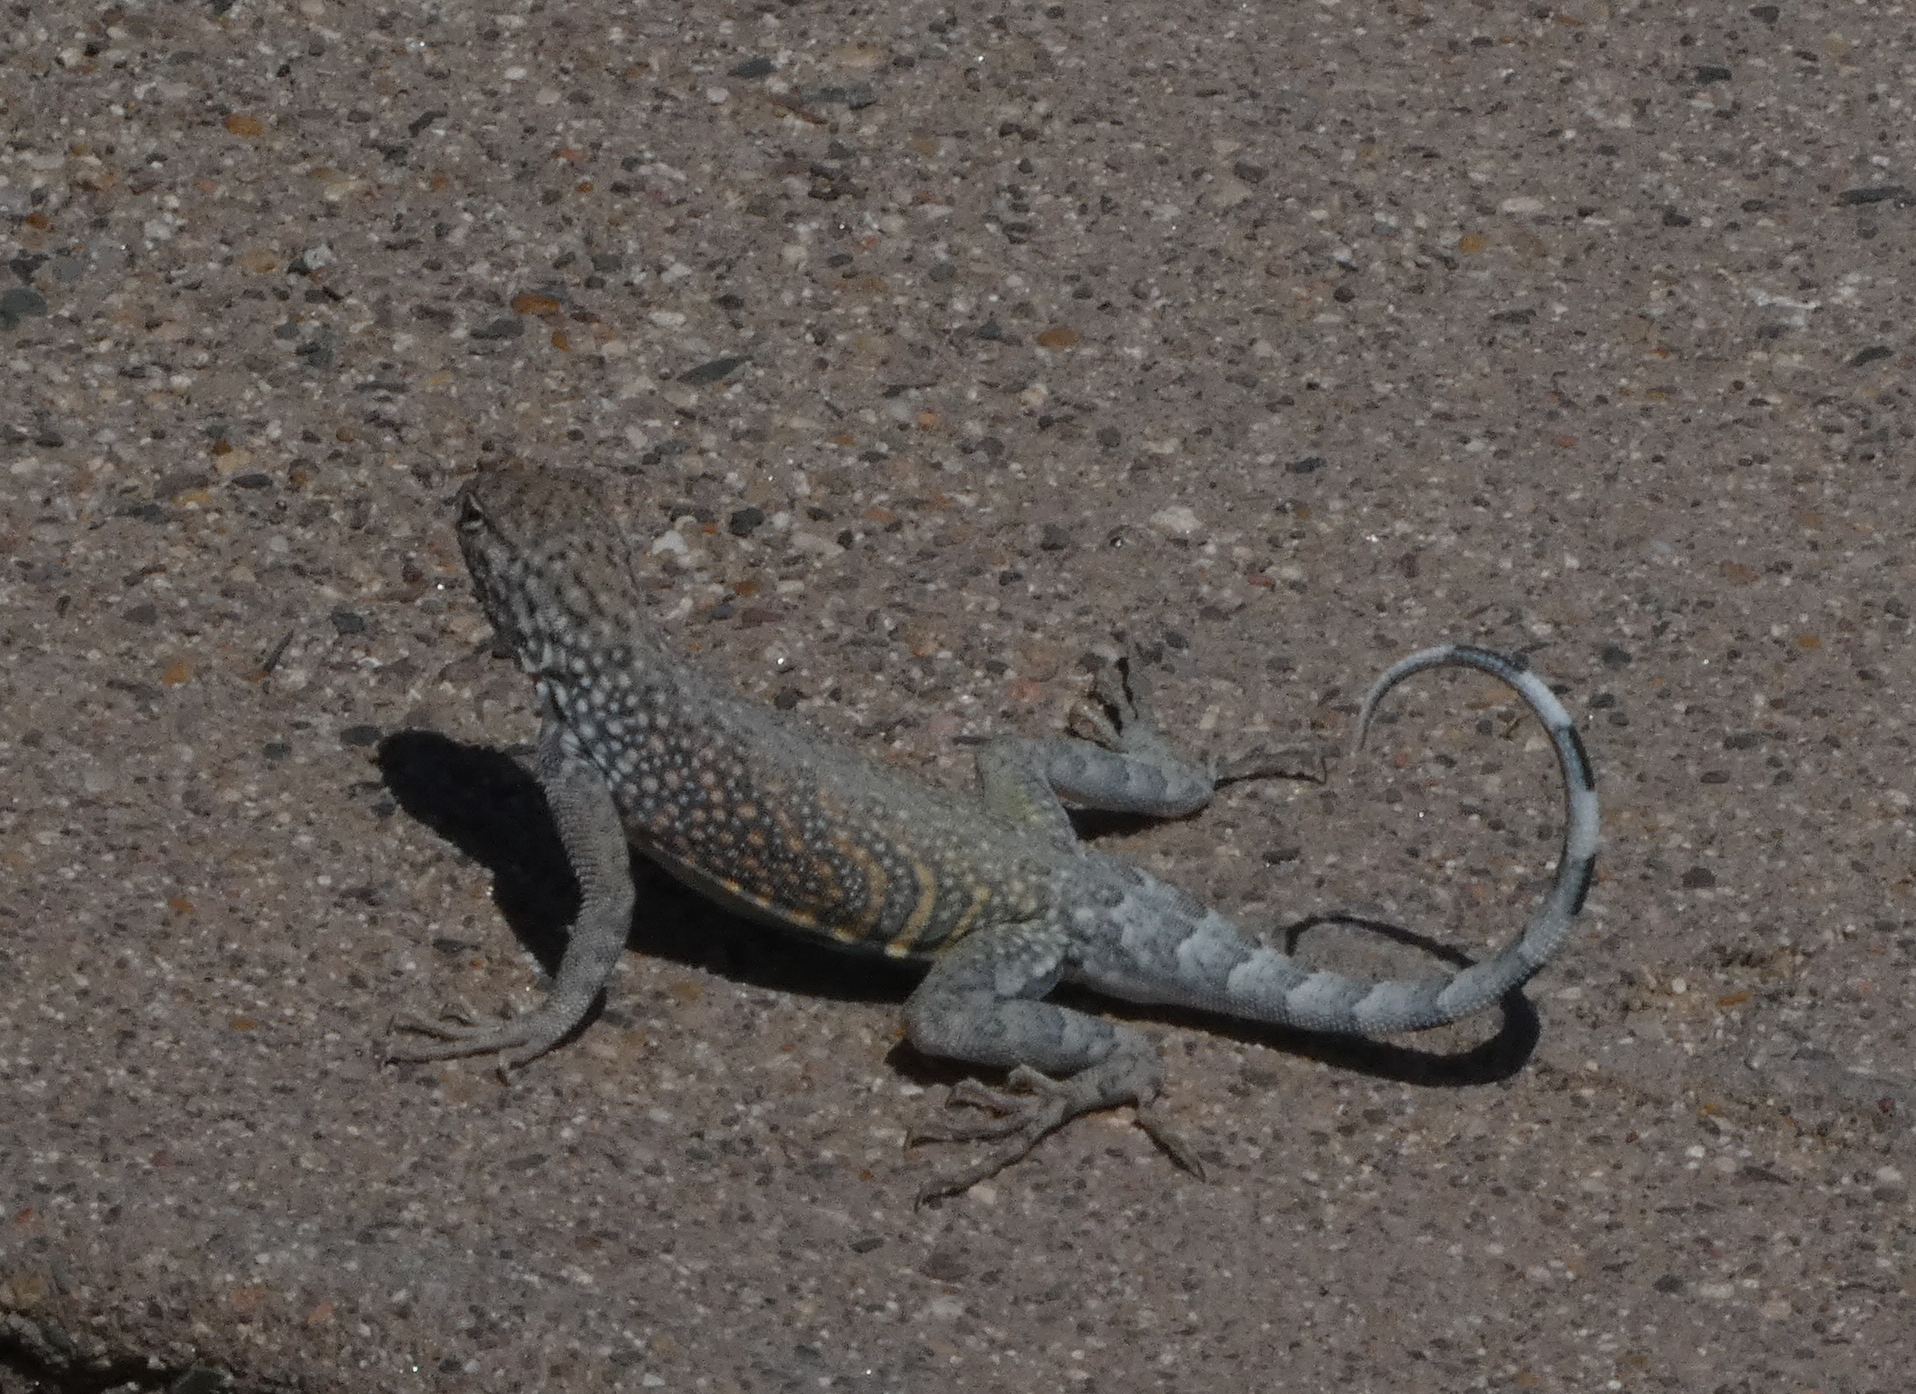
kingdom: Animalia
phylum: Chordata
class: Squamata
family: Phrynosomatidae
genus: Cophosaurus
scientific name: Cophosaurus texanus
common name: Greater earless lizard
